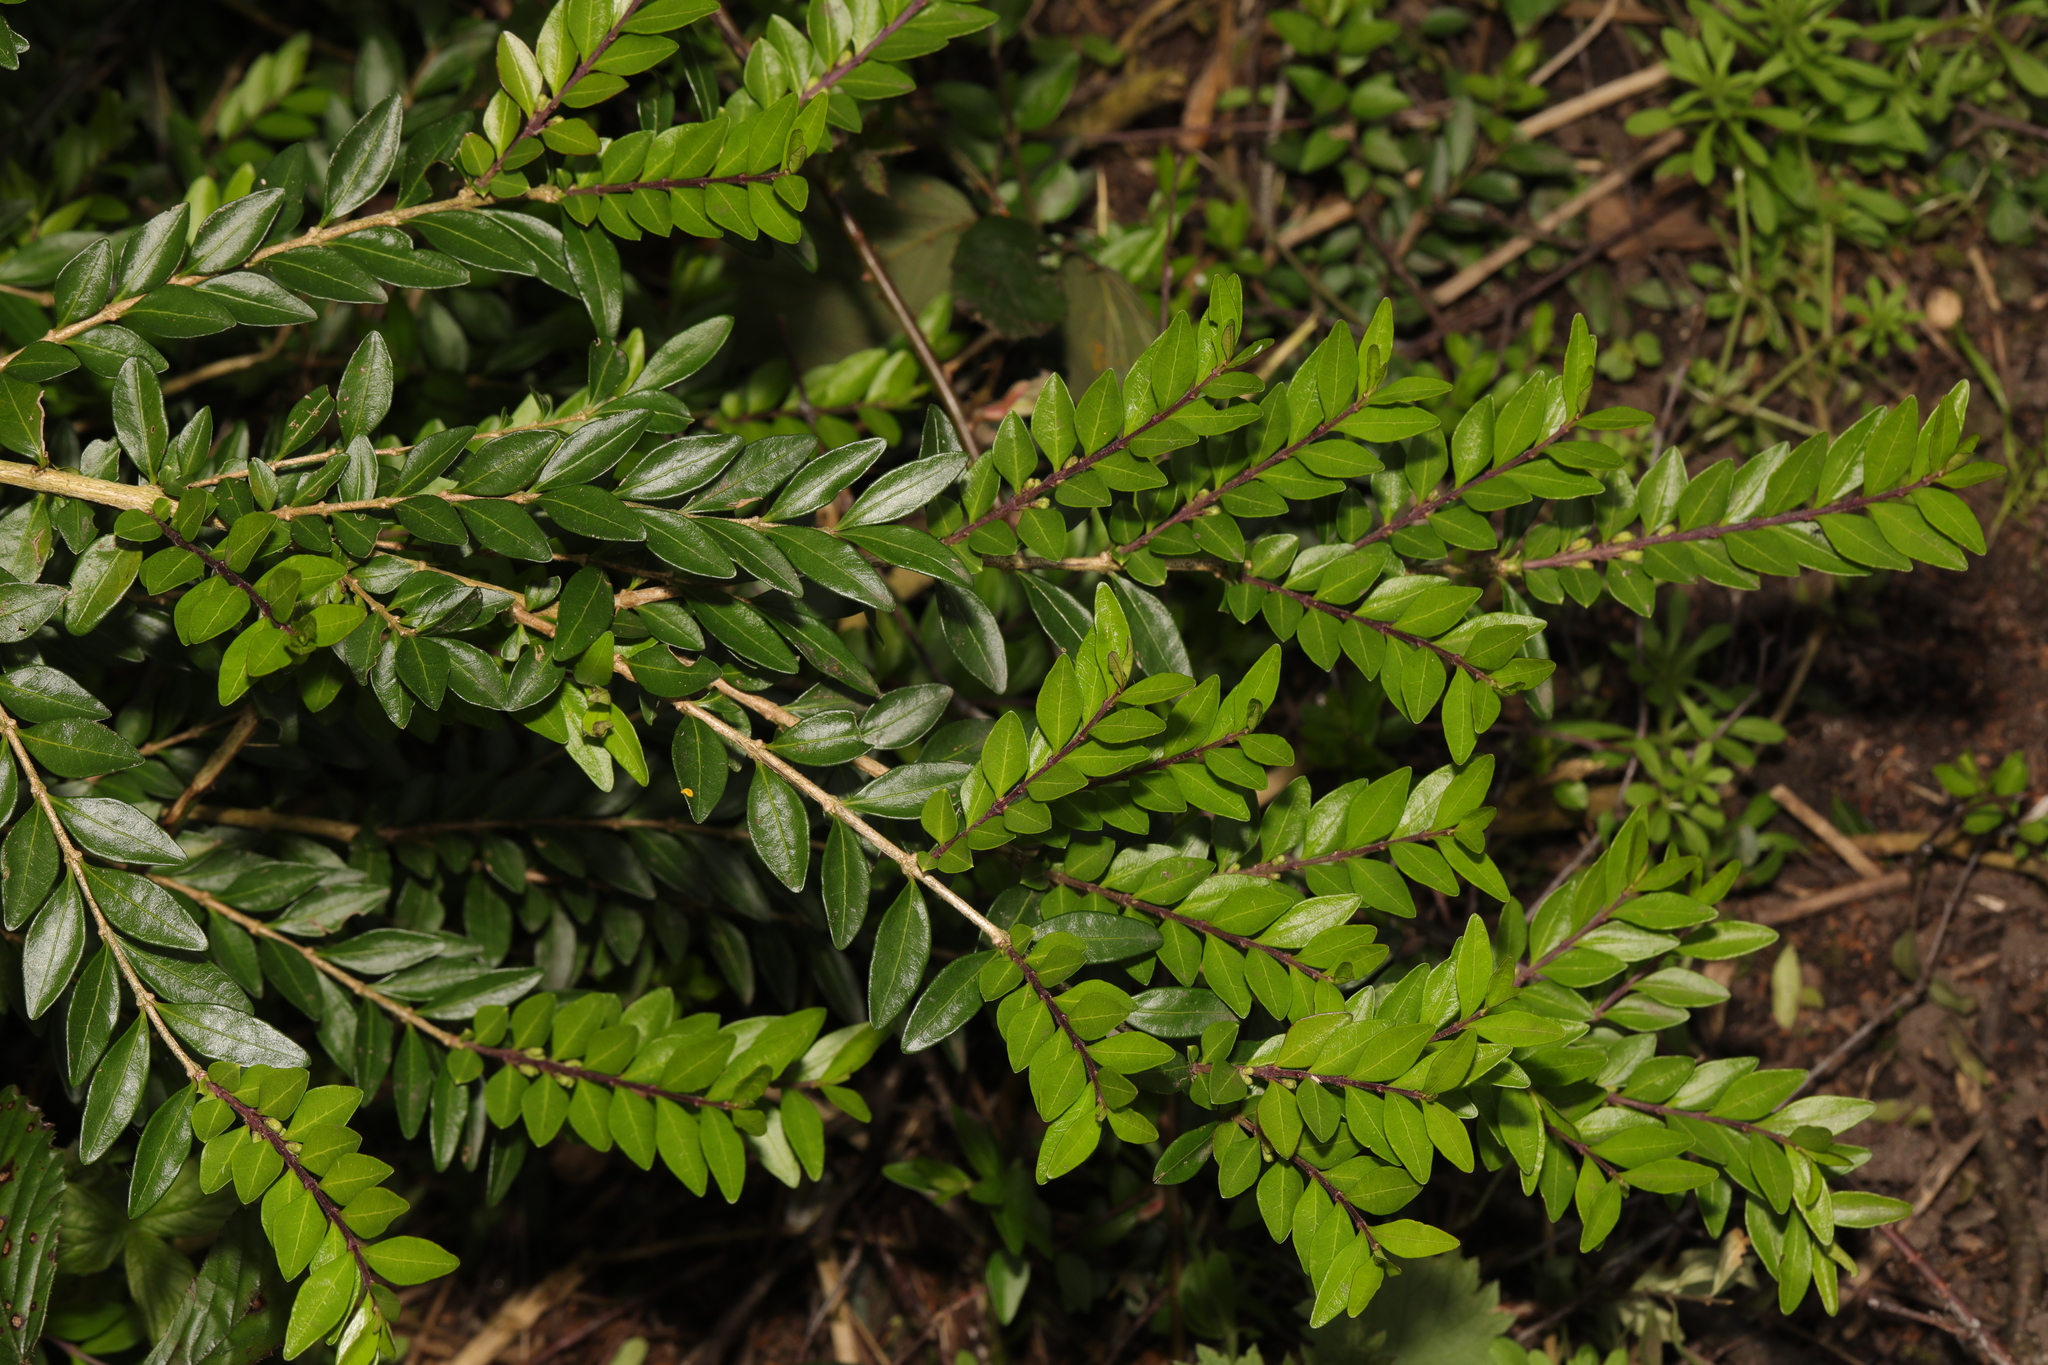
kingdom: Plantae
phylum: Tracheophyta
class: Magnoliopsida
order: Dipsacales
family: Caprifoliaceae
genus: Lonicera
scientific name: Lonicera pileata
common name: Box-leaved honeysuckle
